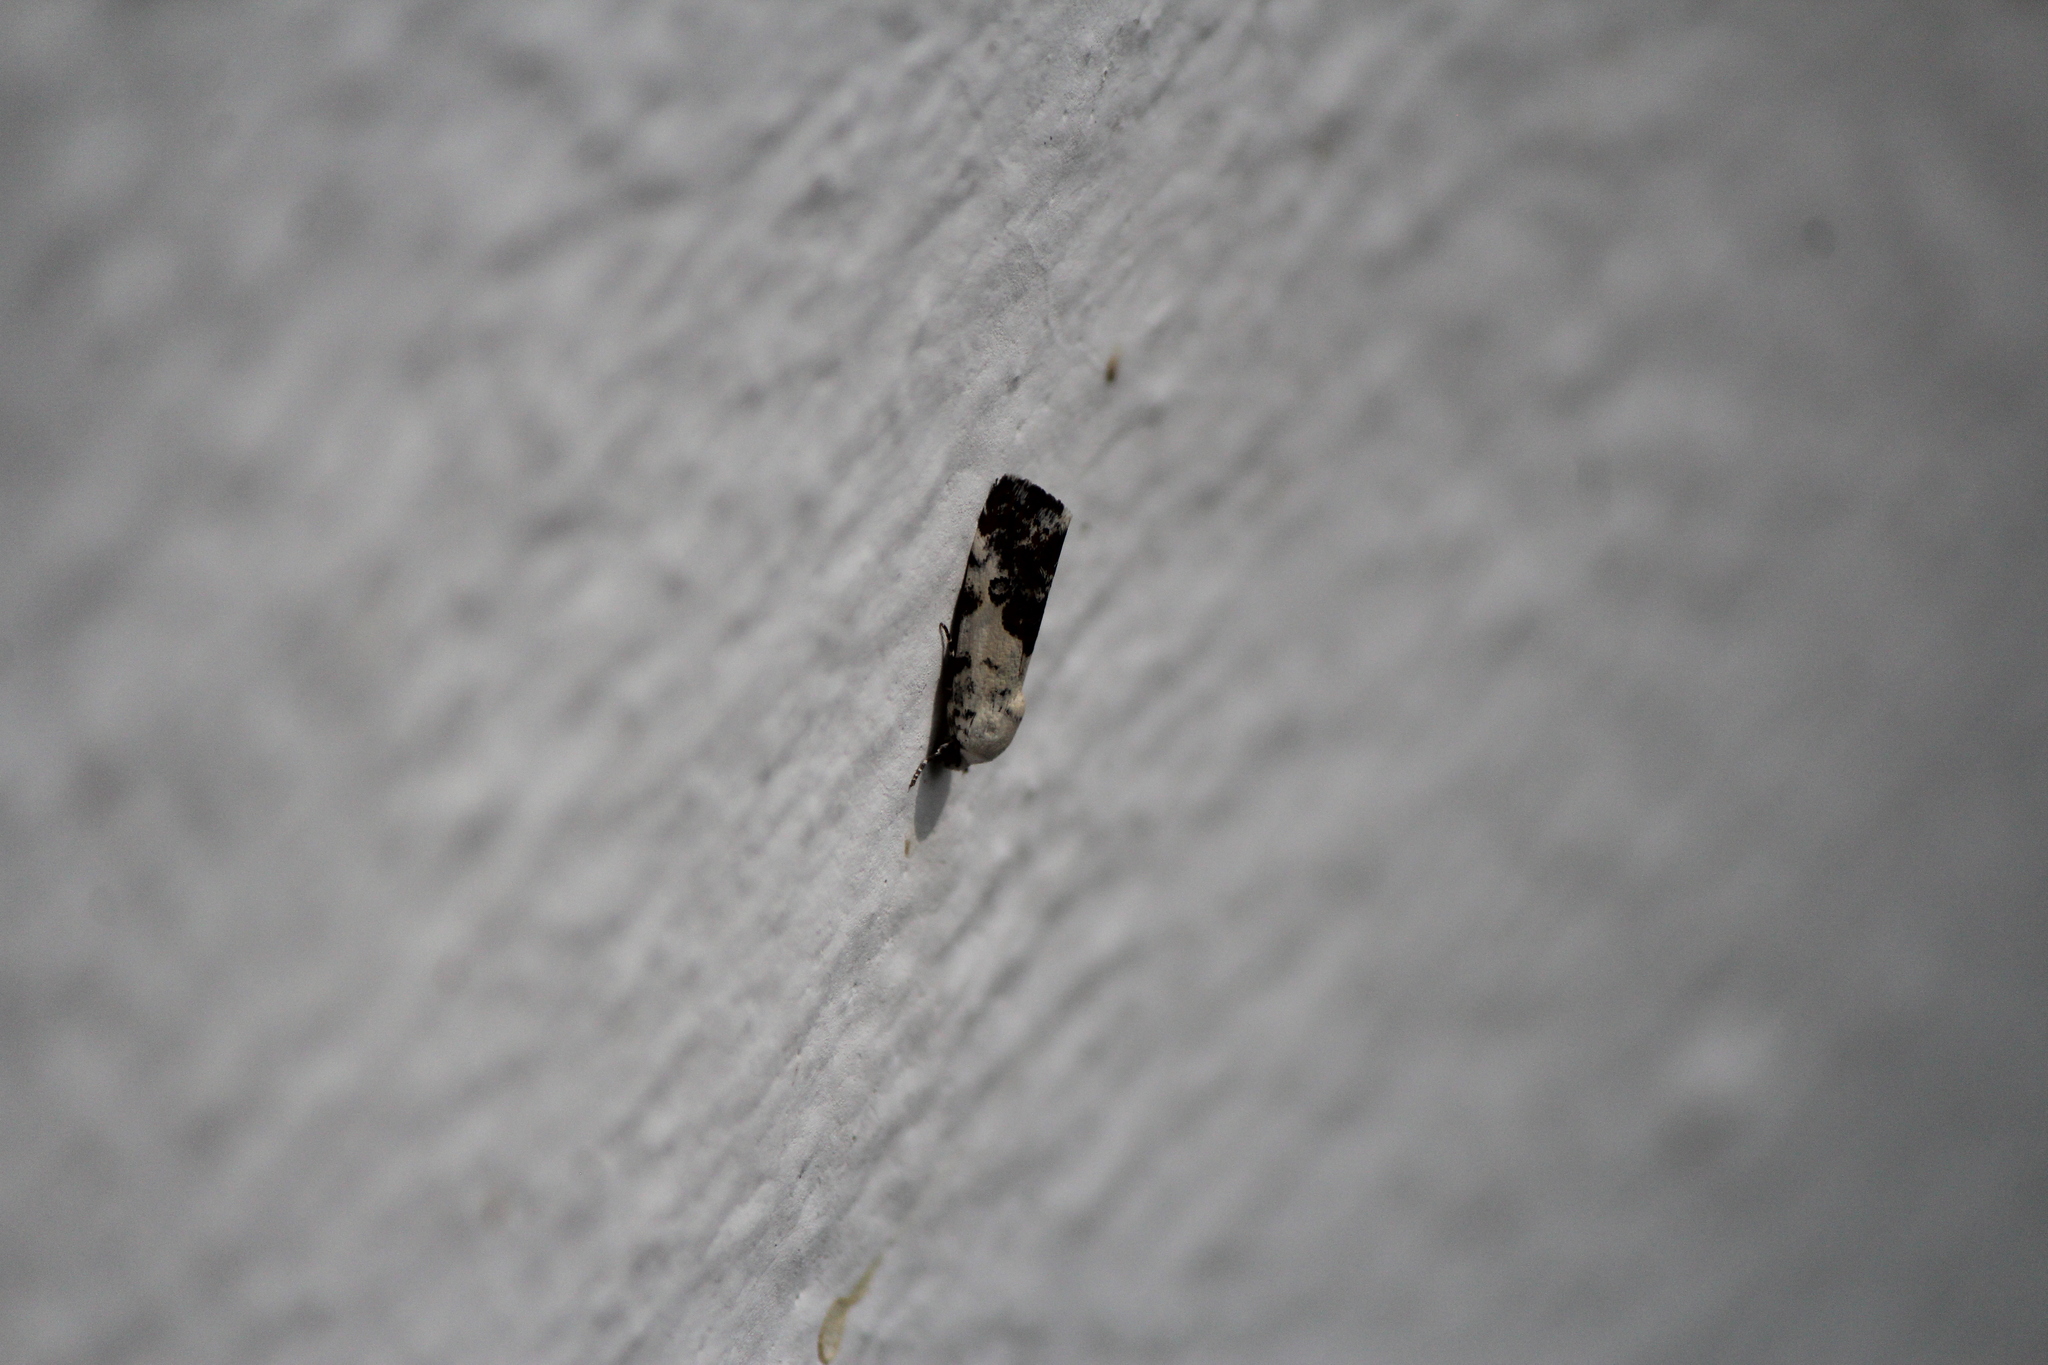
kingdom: Animalia
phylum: Arthropoda
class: Insecta
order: Lepidoptera
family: Noctuidae
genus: Acontia
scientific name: Acontia aprica
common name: Nun
